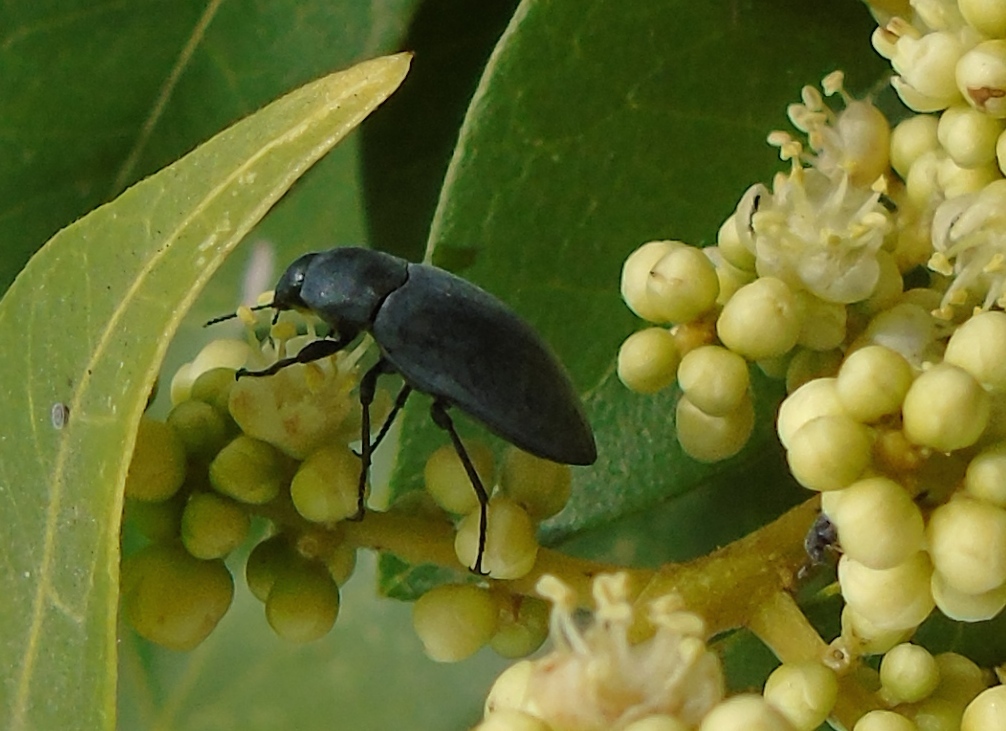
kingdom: Animalia
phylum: Arthropoda
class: Insecta
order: Coleoptera
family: Tenebrionidae
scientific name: Tenebrionidae
